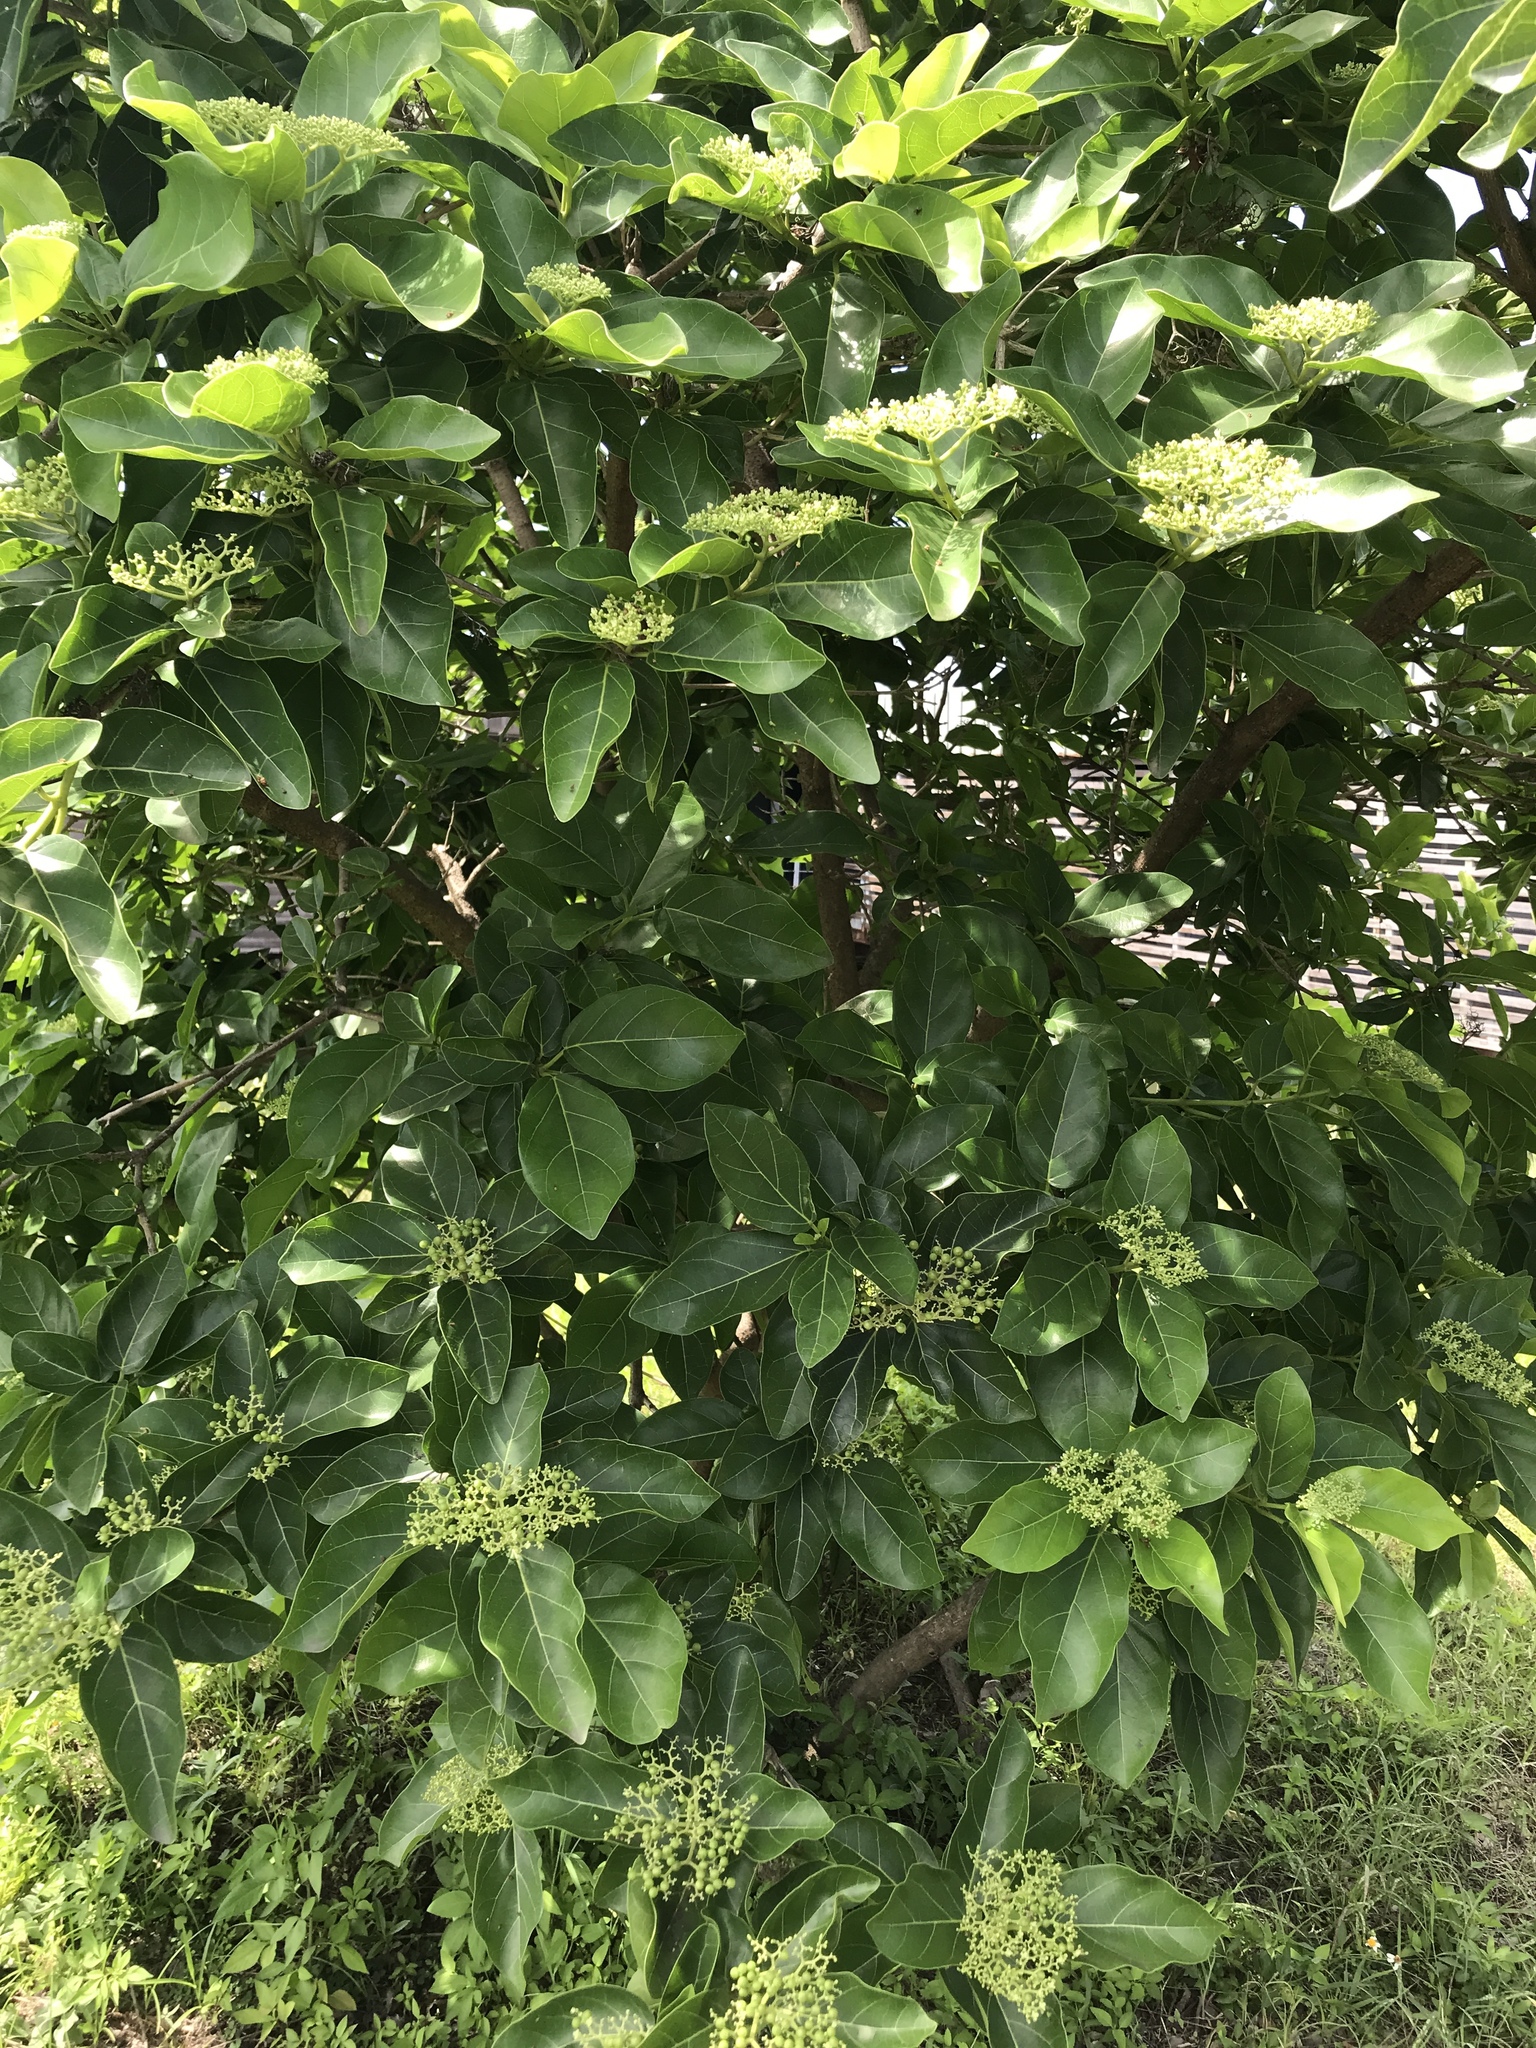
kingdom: Plantae
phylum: Tracheophyta
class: Magnoliopsida
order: Lamiales
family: Lamiaceae
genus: Premna
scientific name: Premna serratifolia
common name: Bastard guelder
